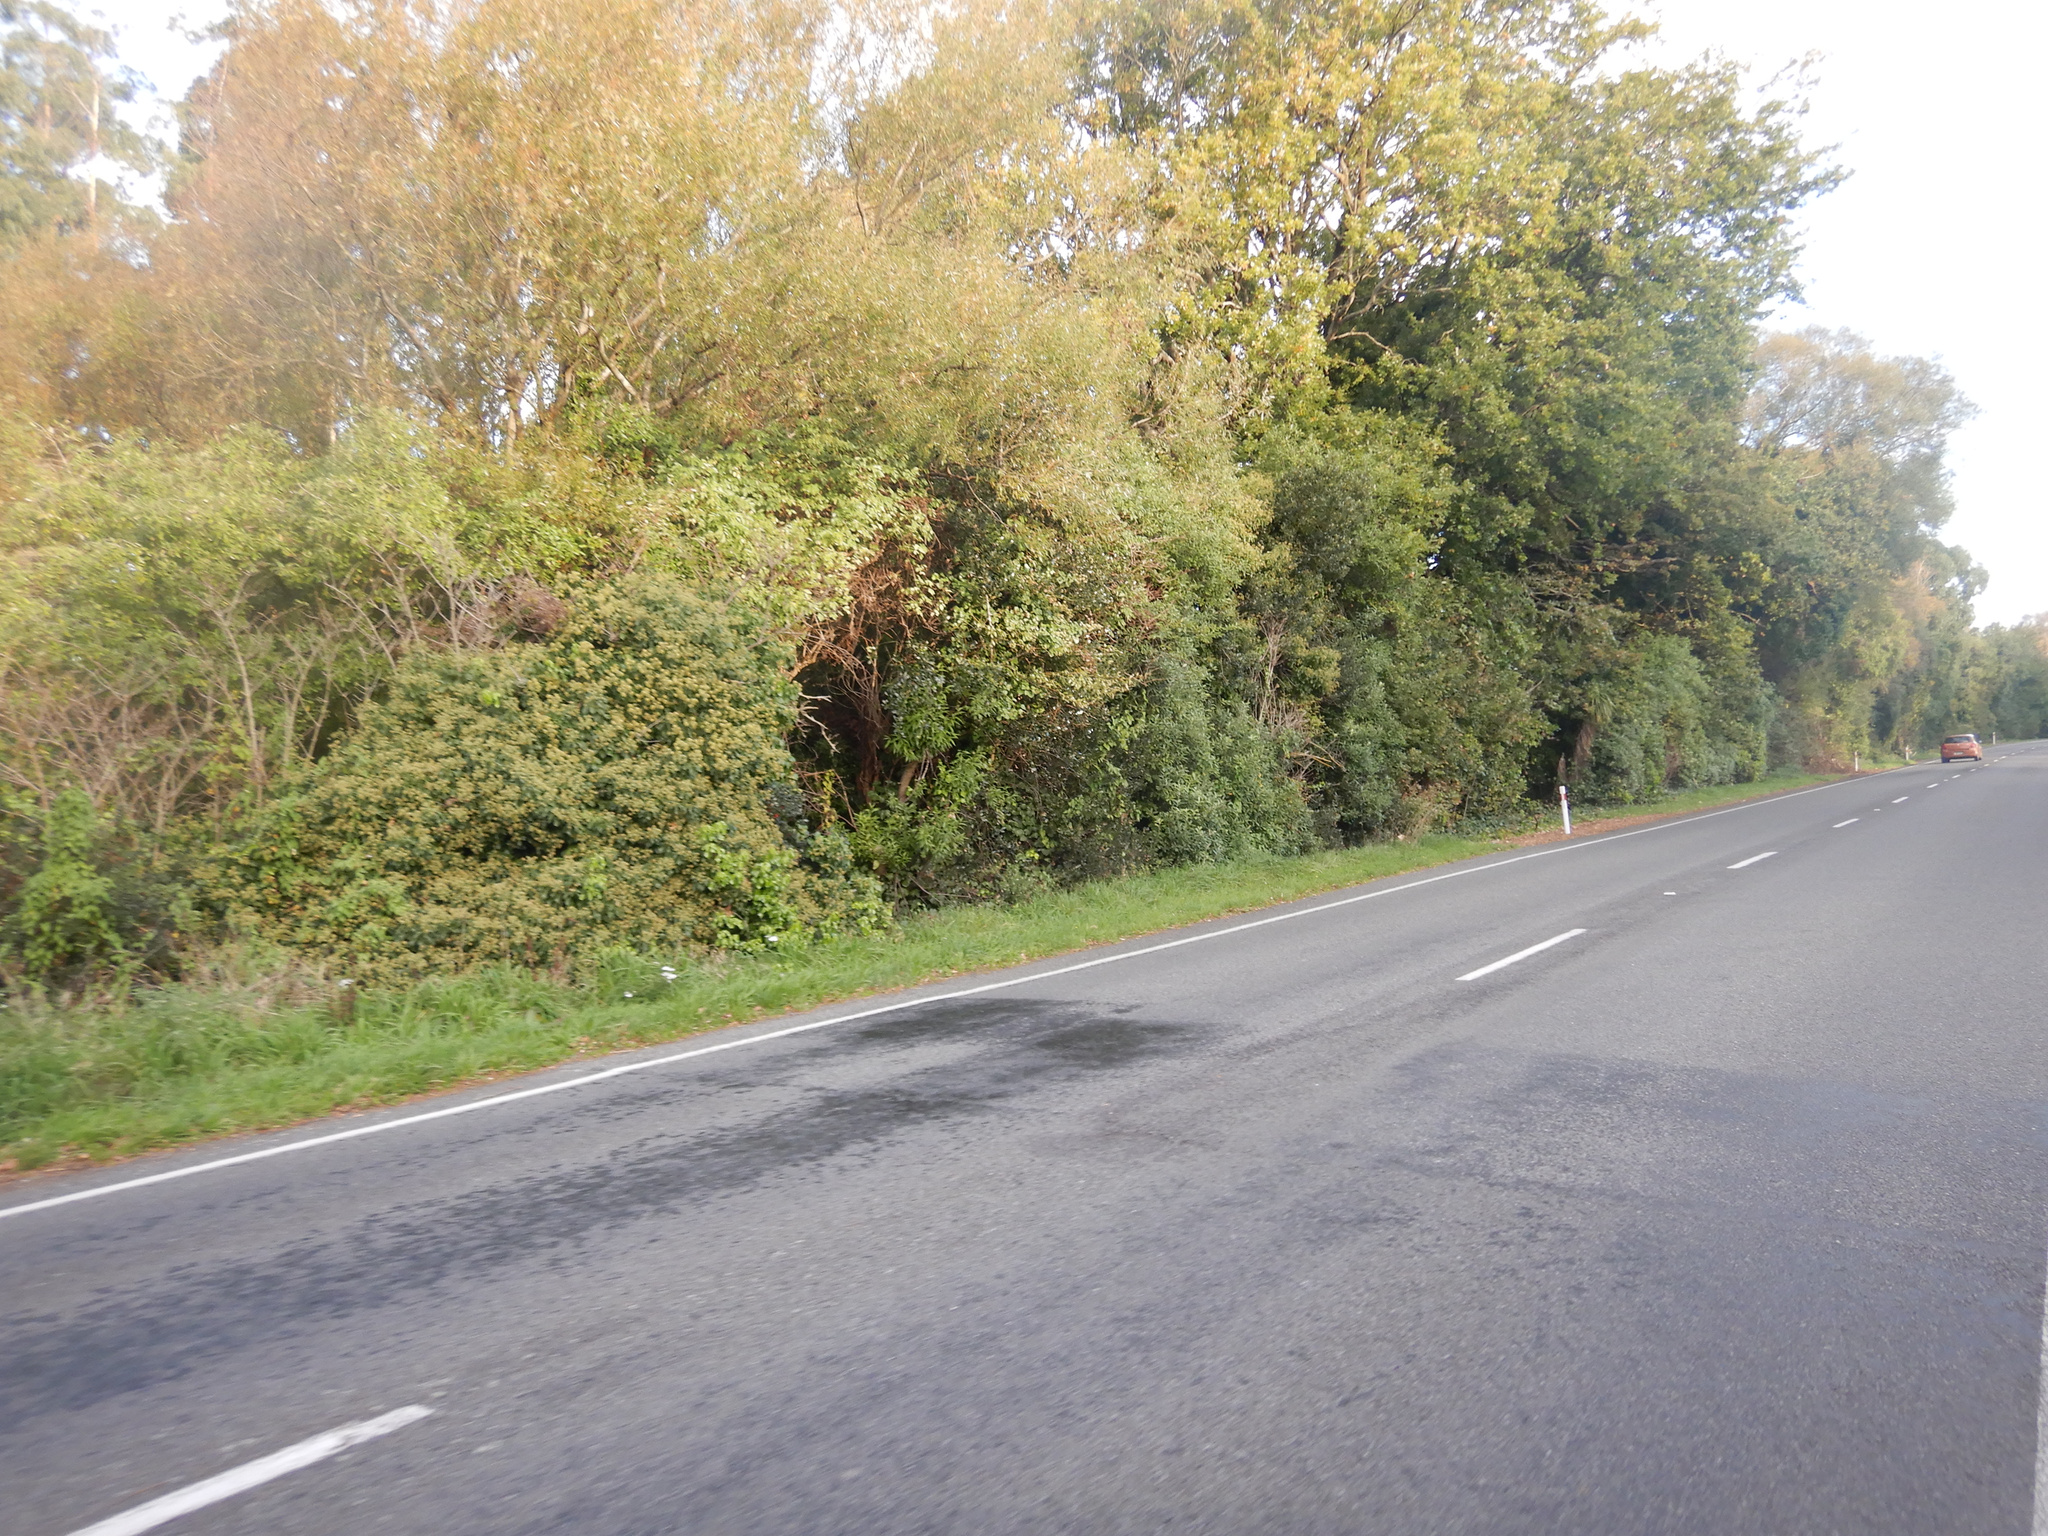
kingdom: Plantae
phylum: Tracheophyta
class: Magnoliopsida
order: Aquifoliales
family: Aquifoliaceae
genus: Ilex
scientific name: Ilex aquifolium
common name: English holly
